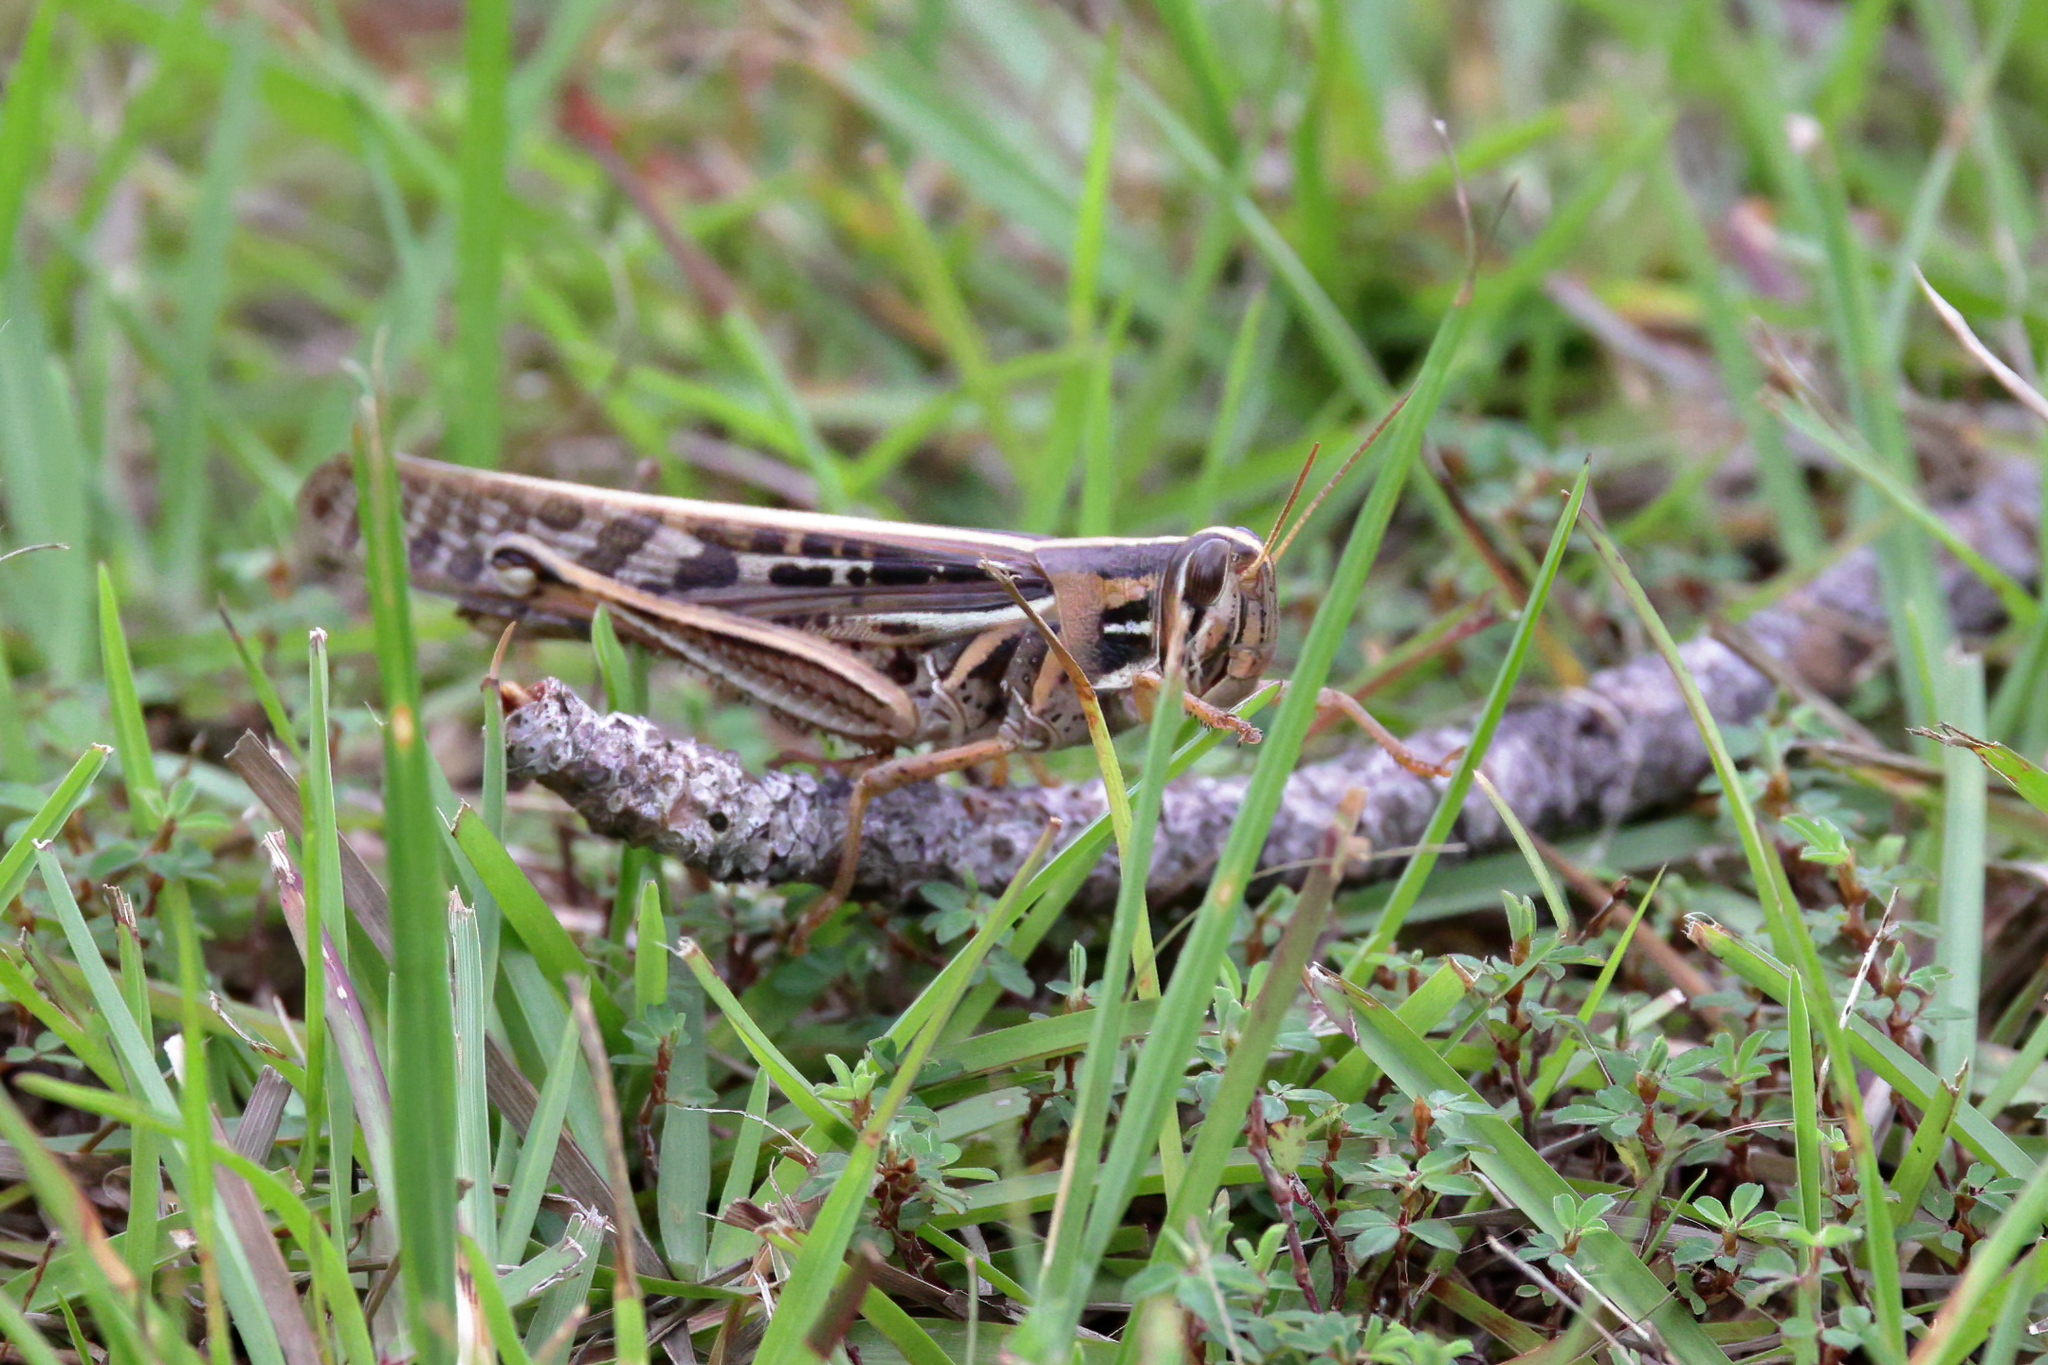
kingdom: Animalia
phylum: Arthropoda
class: Insecta
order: Orthoptera
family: Acrididae
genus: Schistocerca
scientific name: Schistocerca americana
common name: American bird locust
